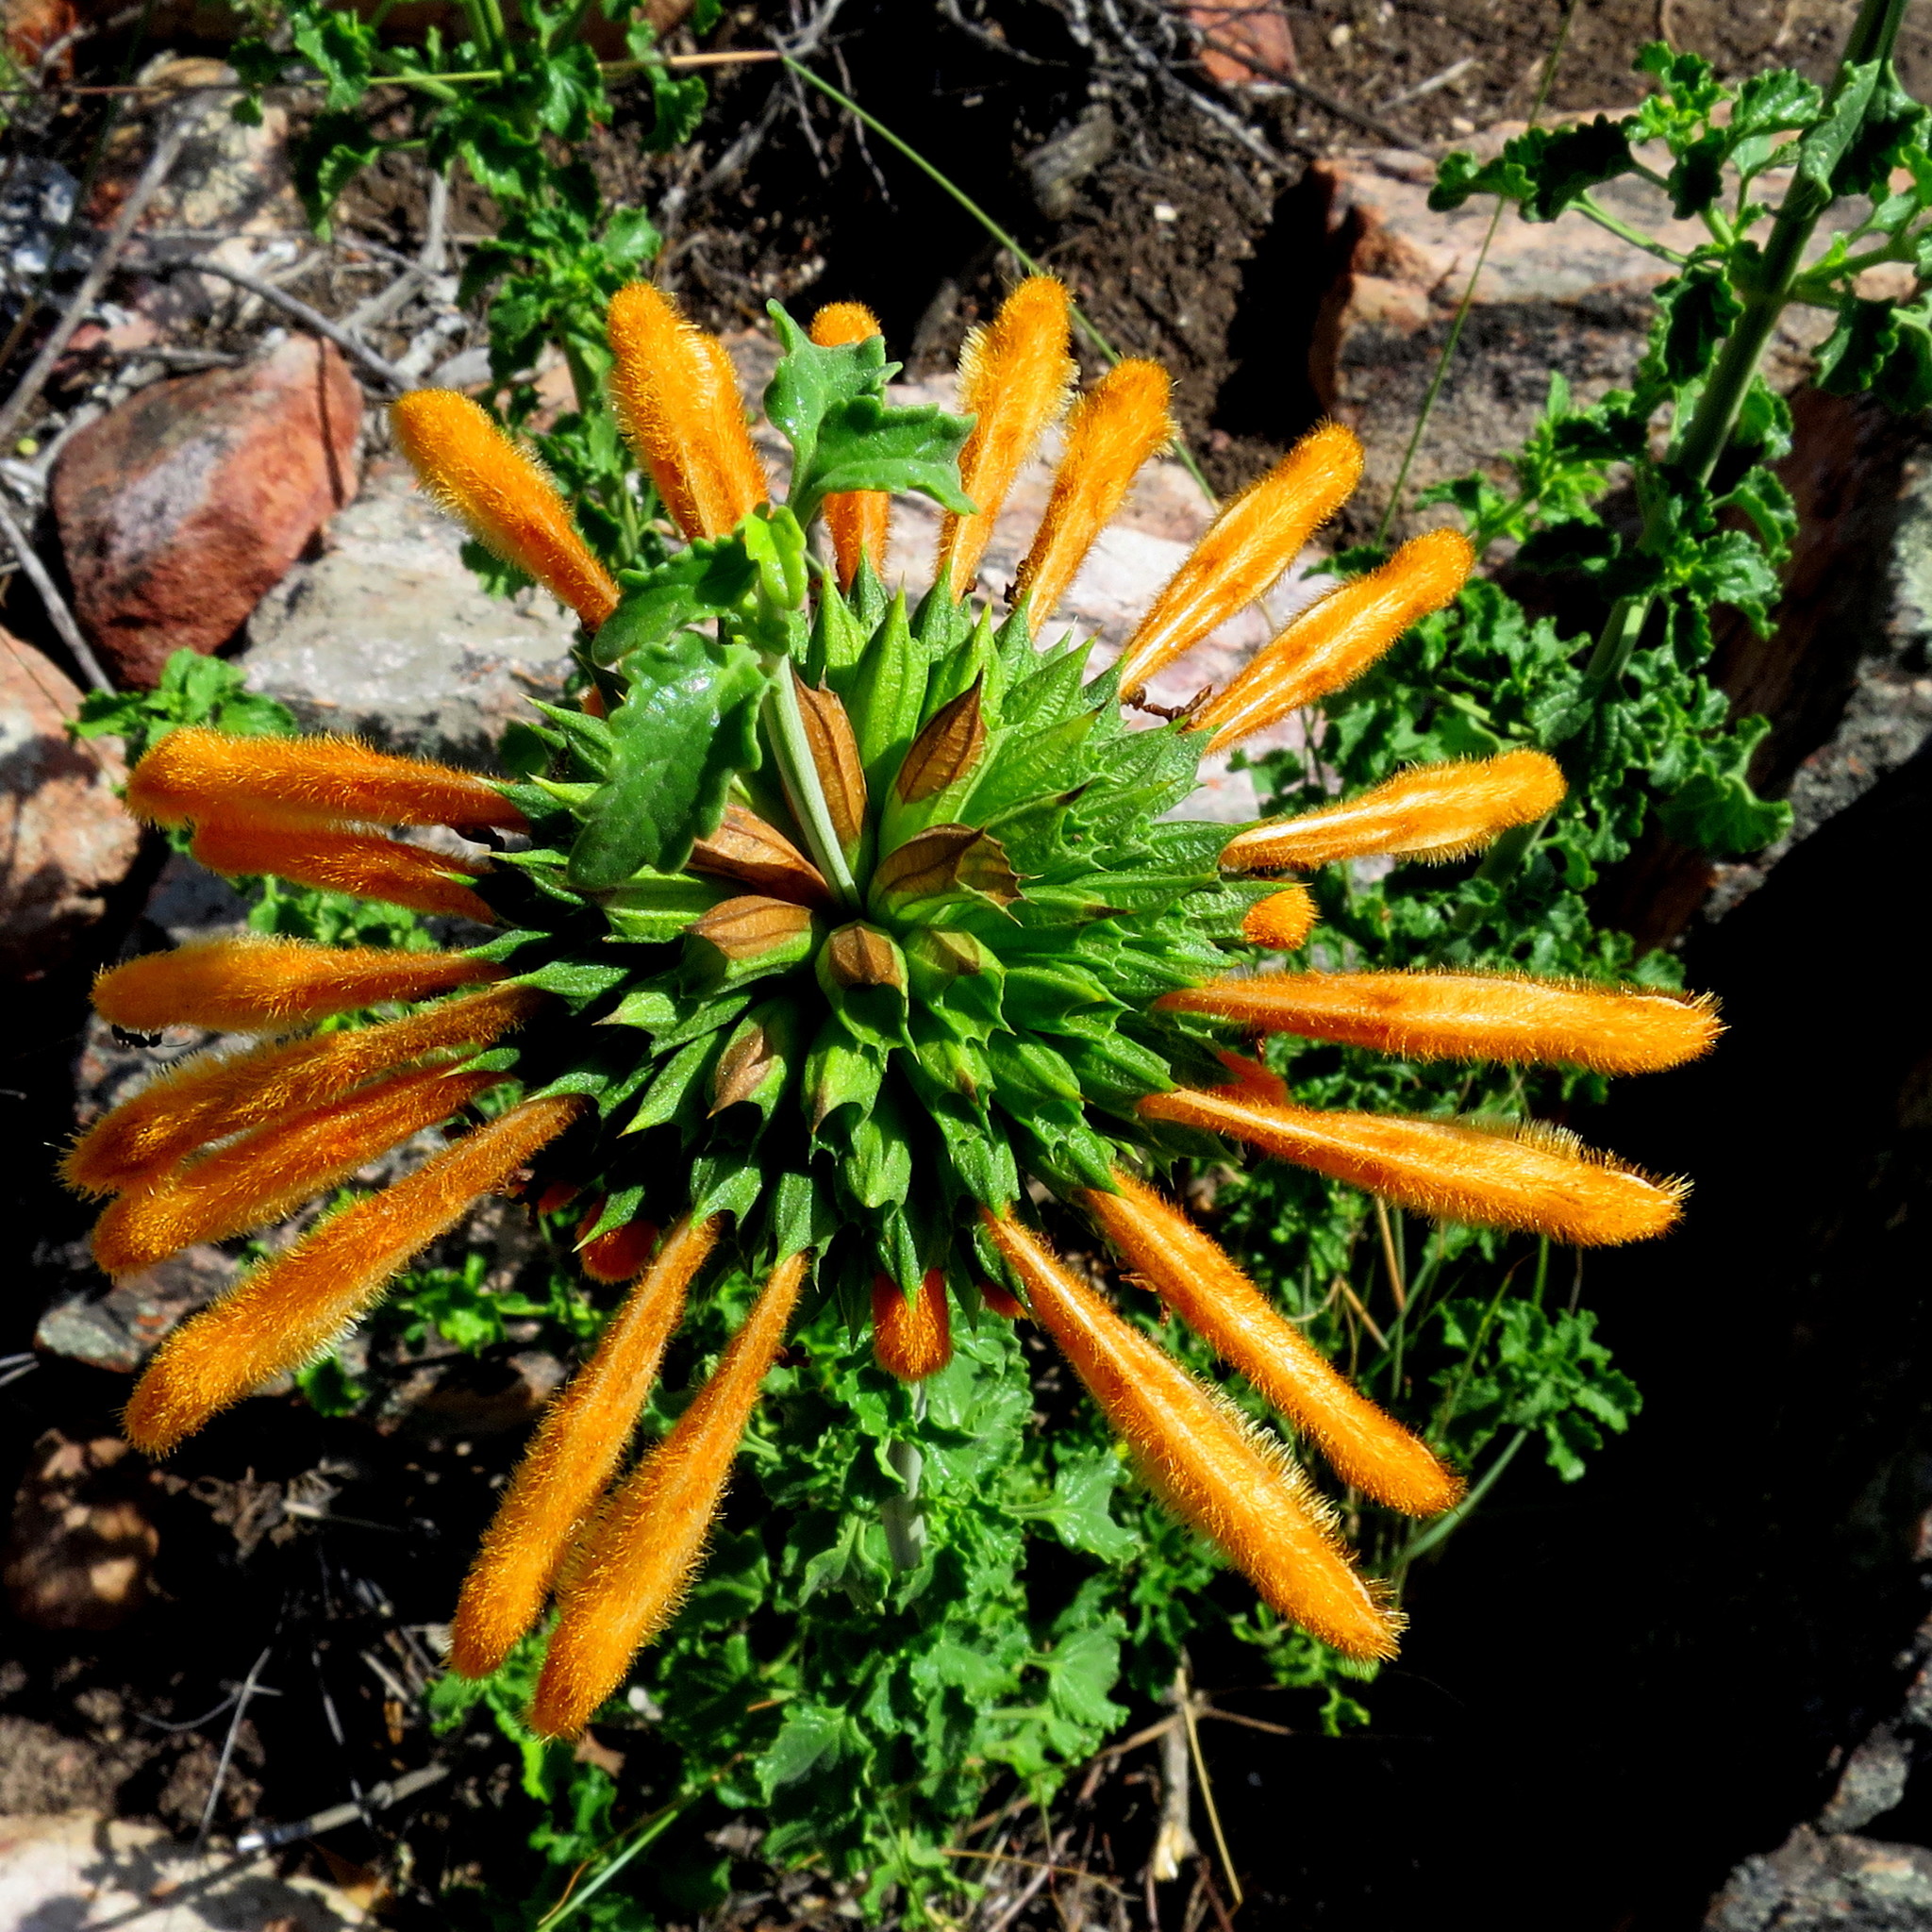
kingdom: Plantae
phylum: Tracheophyta
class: Magnoliopsida
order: Lamiales
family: Lamiaceae
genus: Leonotis
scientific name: Leonotis ocymifolia
